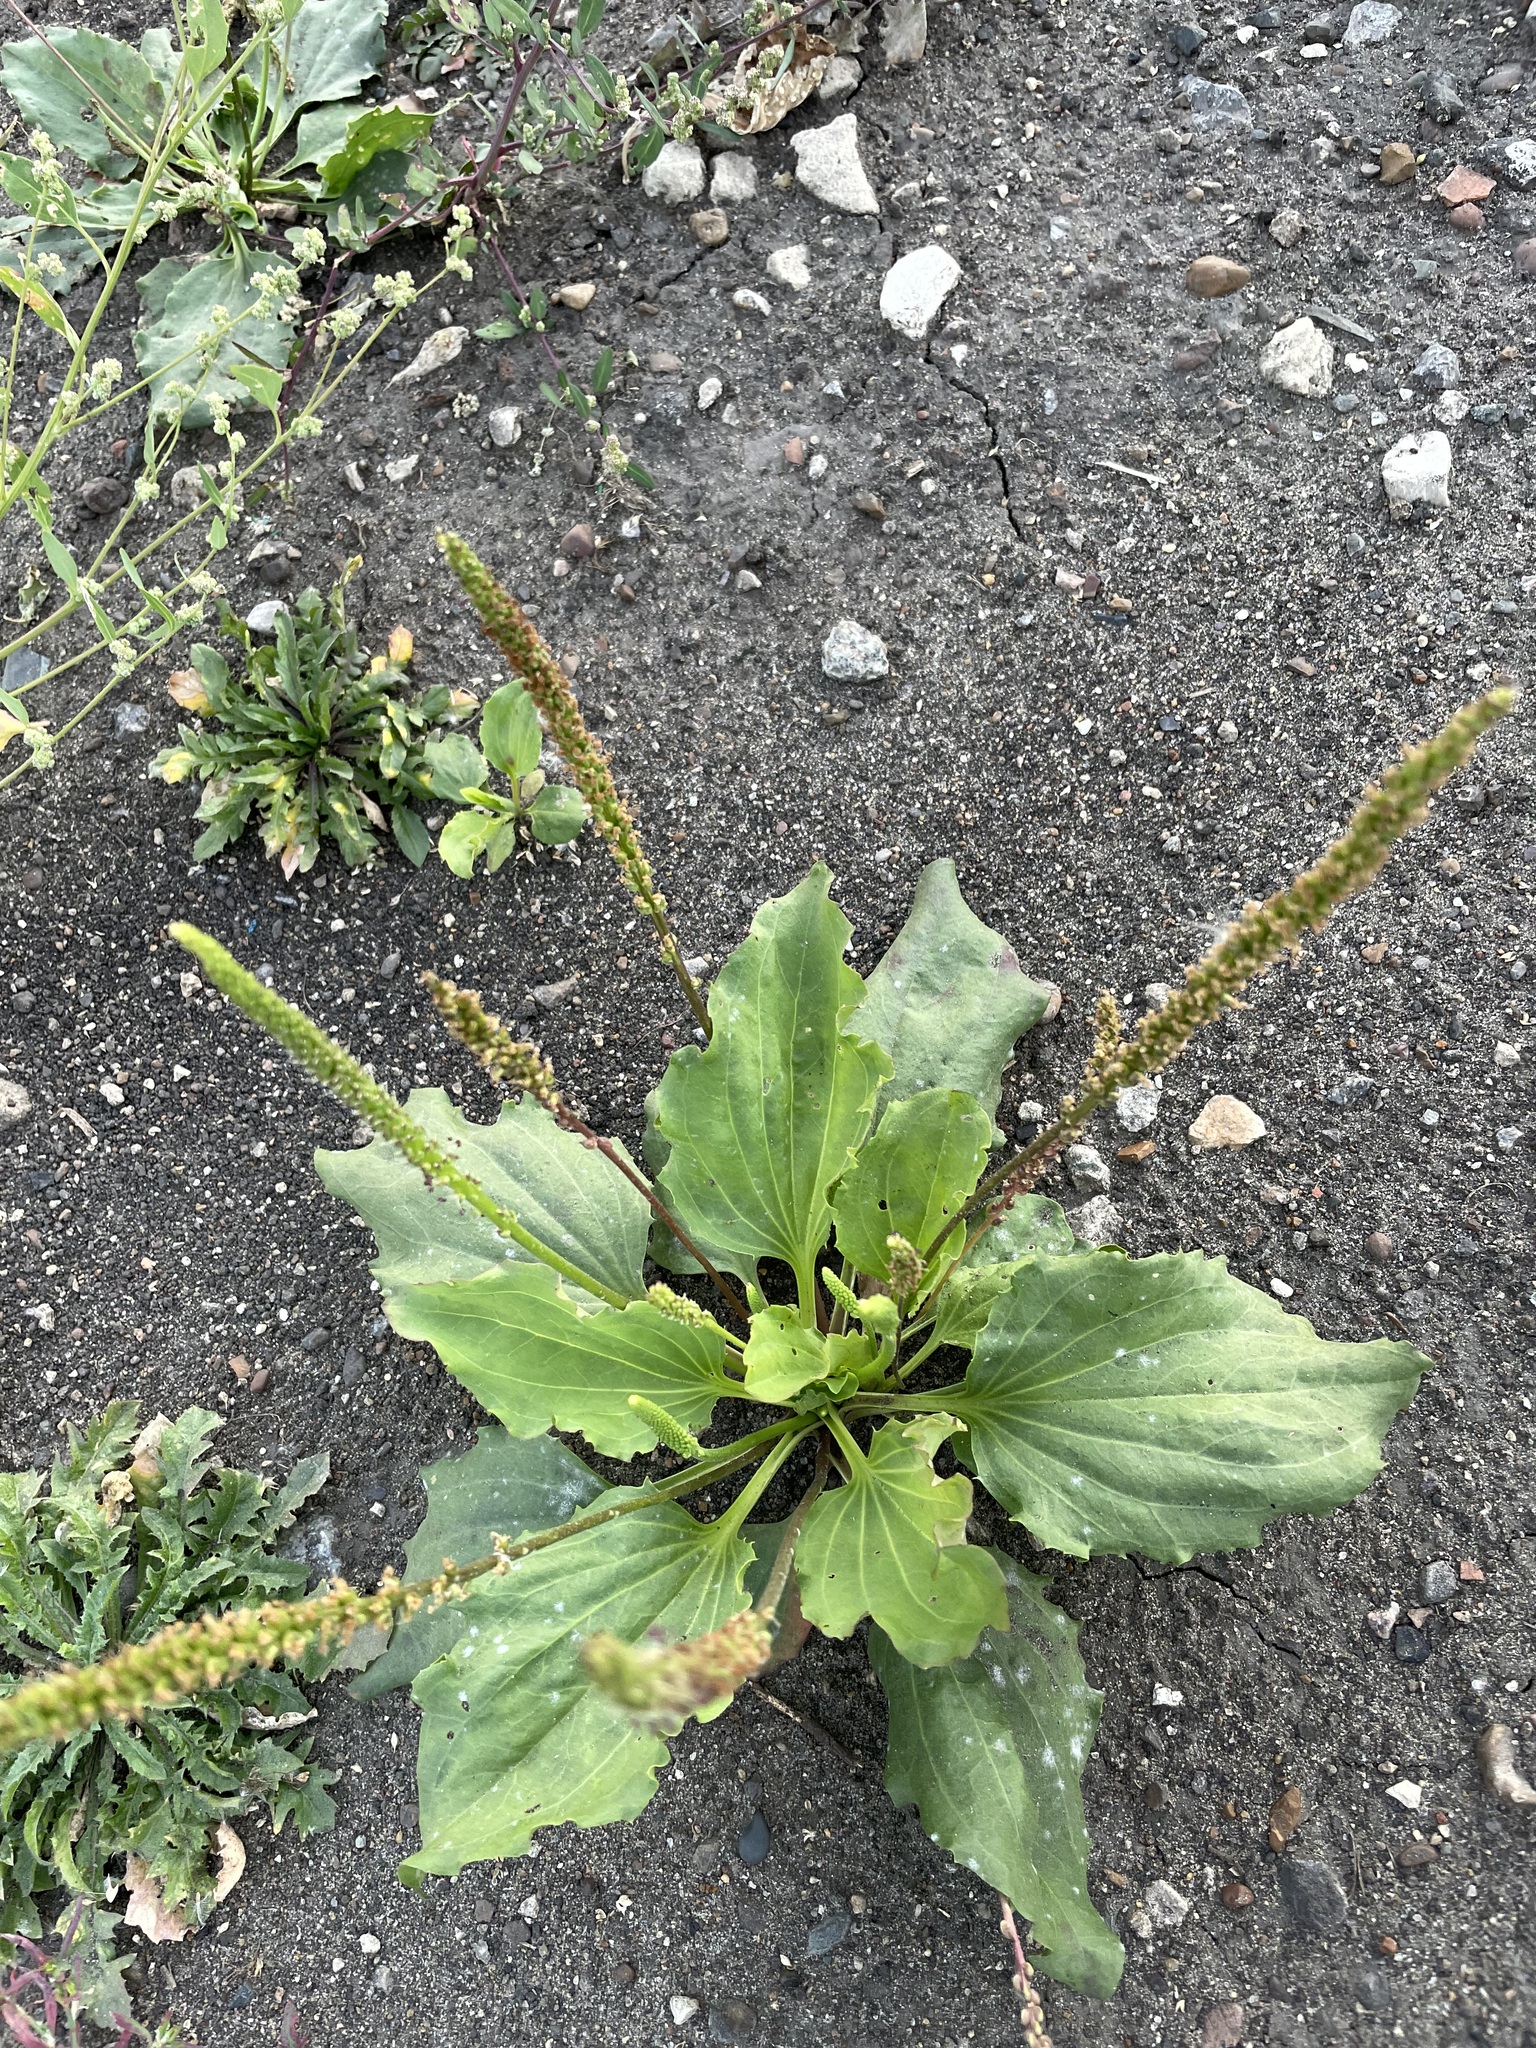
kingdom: Plantae
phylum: Tracheophyta
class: Magnoliopsida
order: Lamiales
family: Plantaginaceae
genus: Plantago
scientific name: Plantago major
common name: Common plantain
